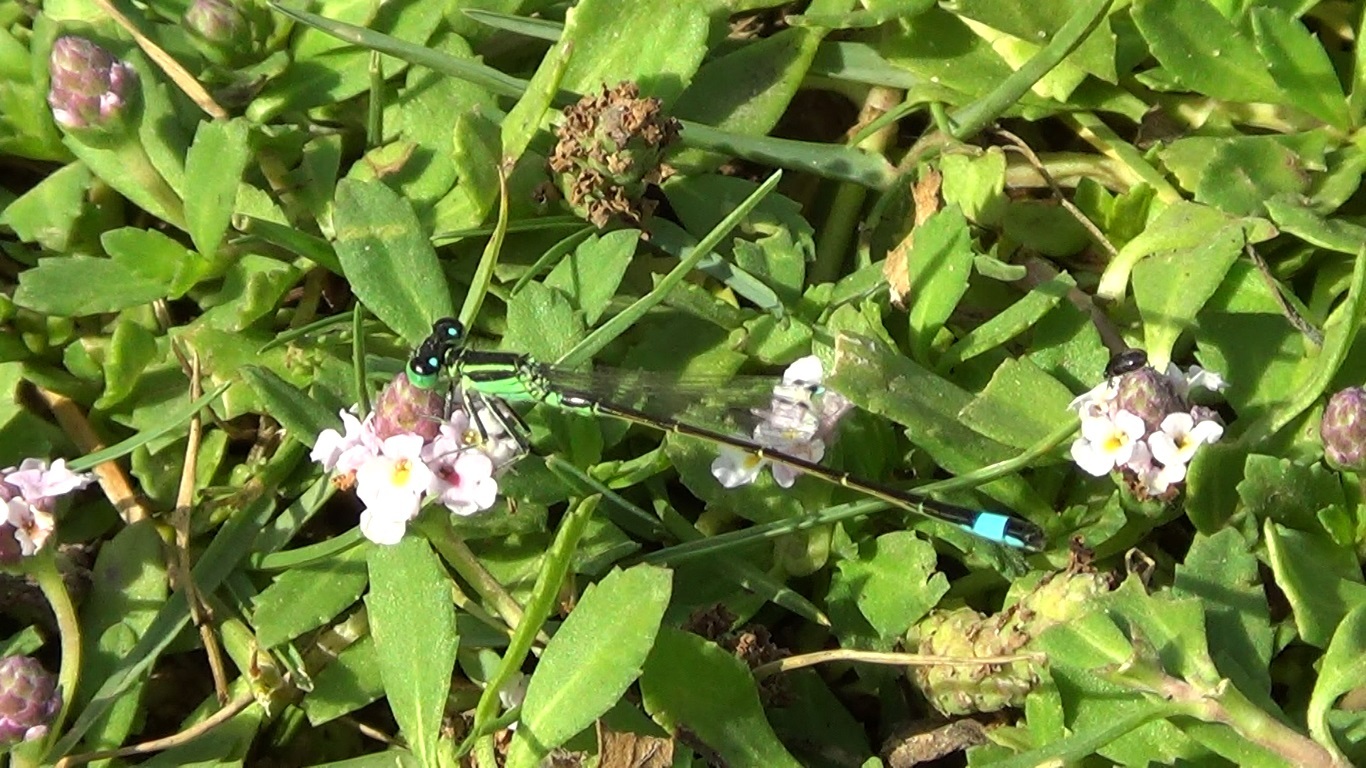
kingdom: Animalia
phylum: Arthropoda
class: Insecta
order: Odonata
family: Coenagrionidae
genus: Ischnura
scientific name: Ischnura genei
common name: Island bluetail
